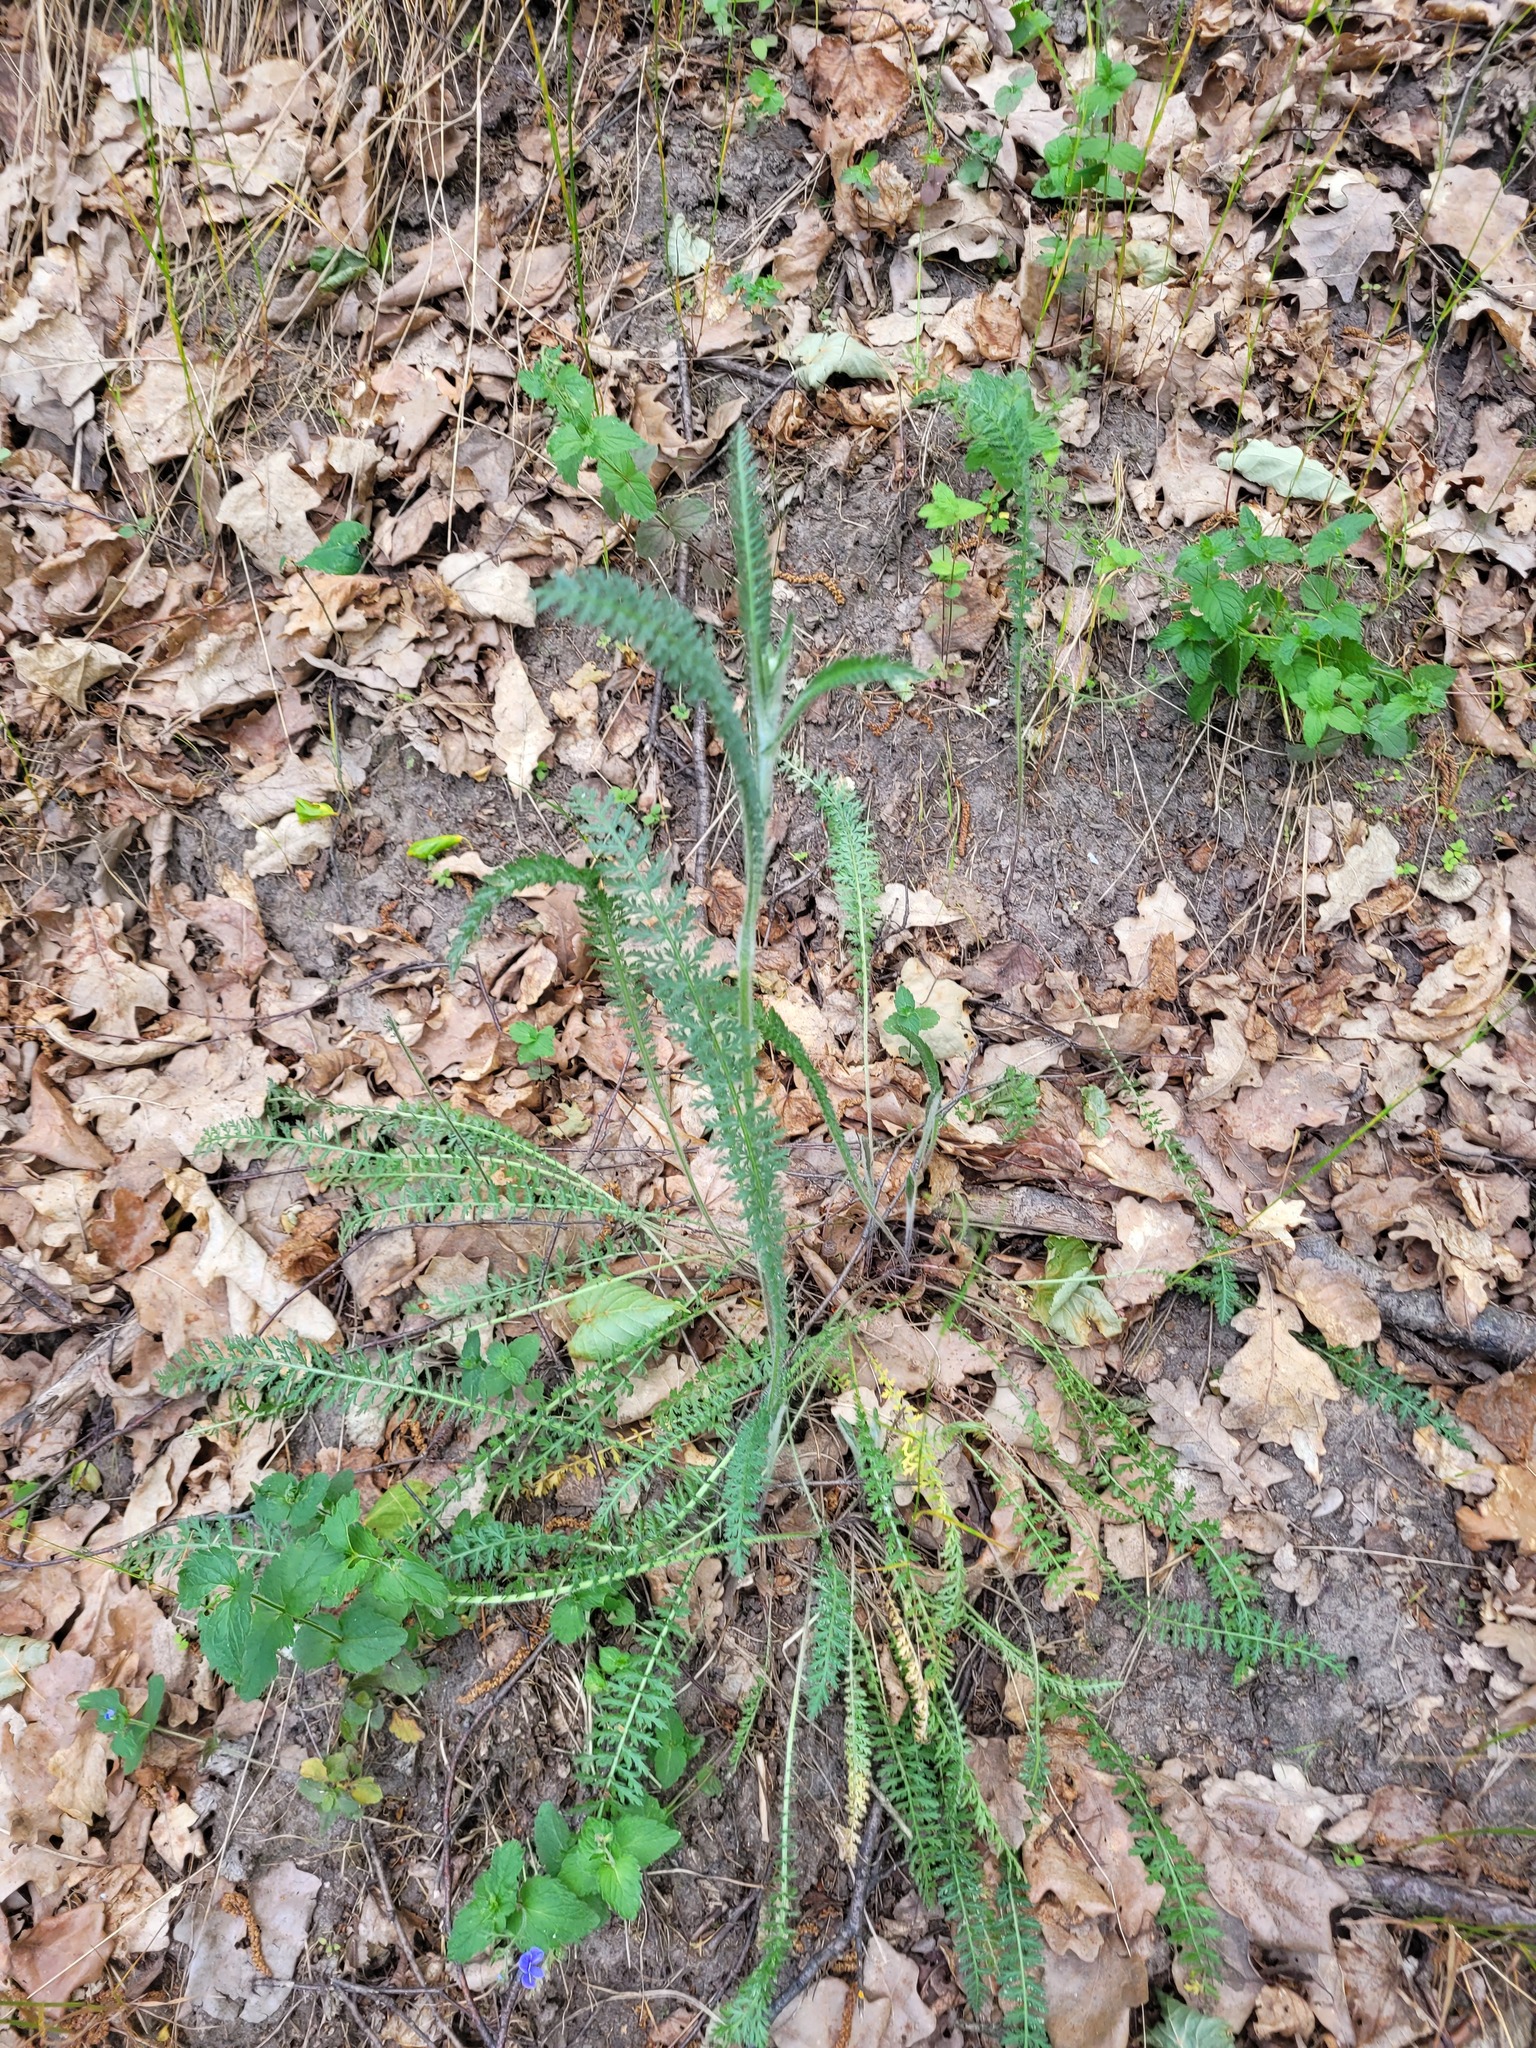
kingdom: Plantae
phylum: Tracheophyta
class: Magnoliopsida
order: Asterales
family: Asteraceae
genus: Achillea
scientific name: Achillea setacea
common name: Bristly yarrow
